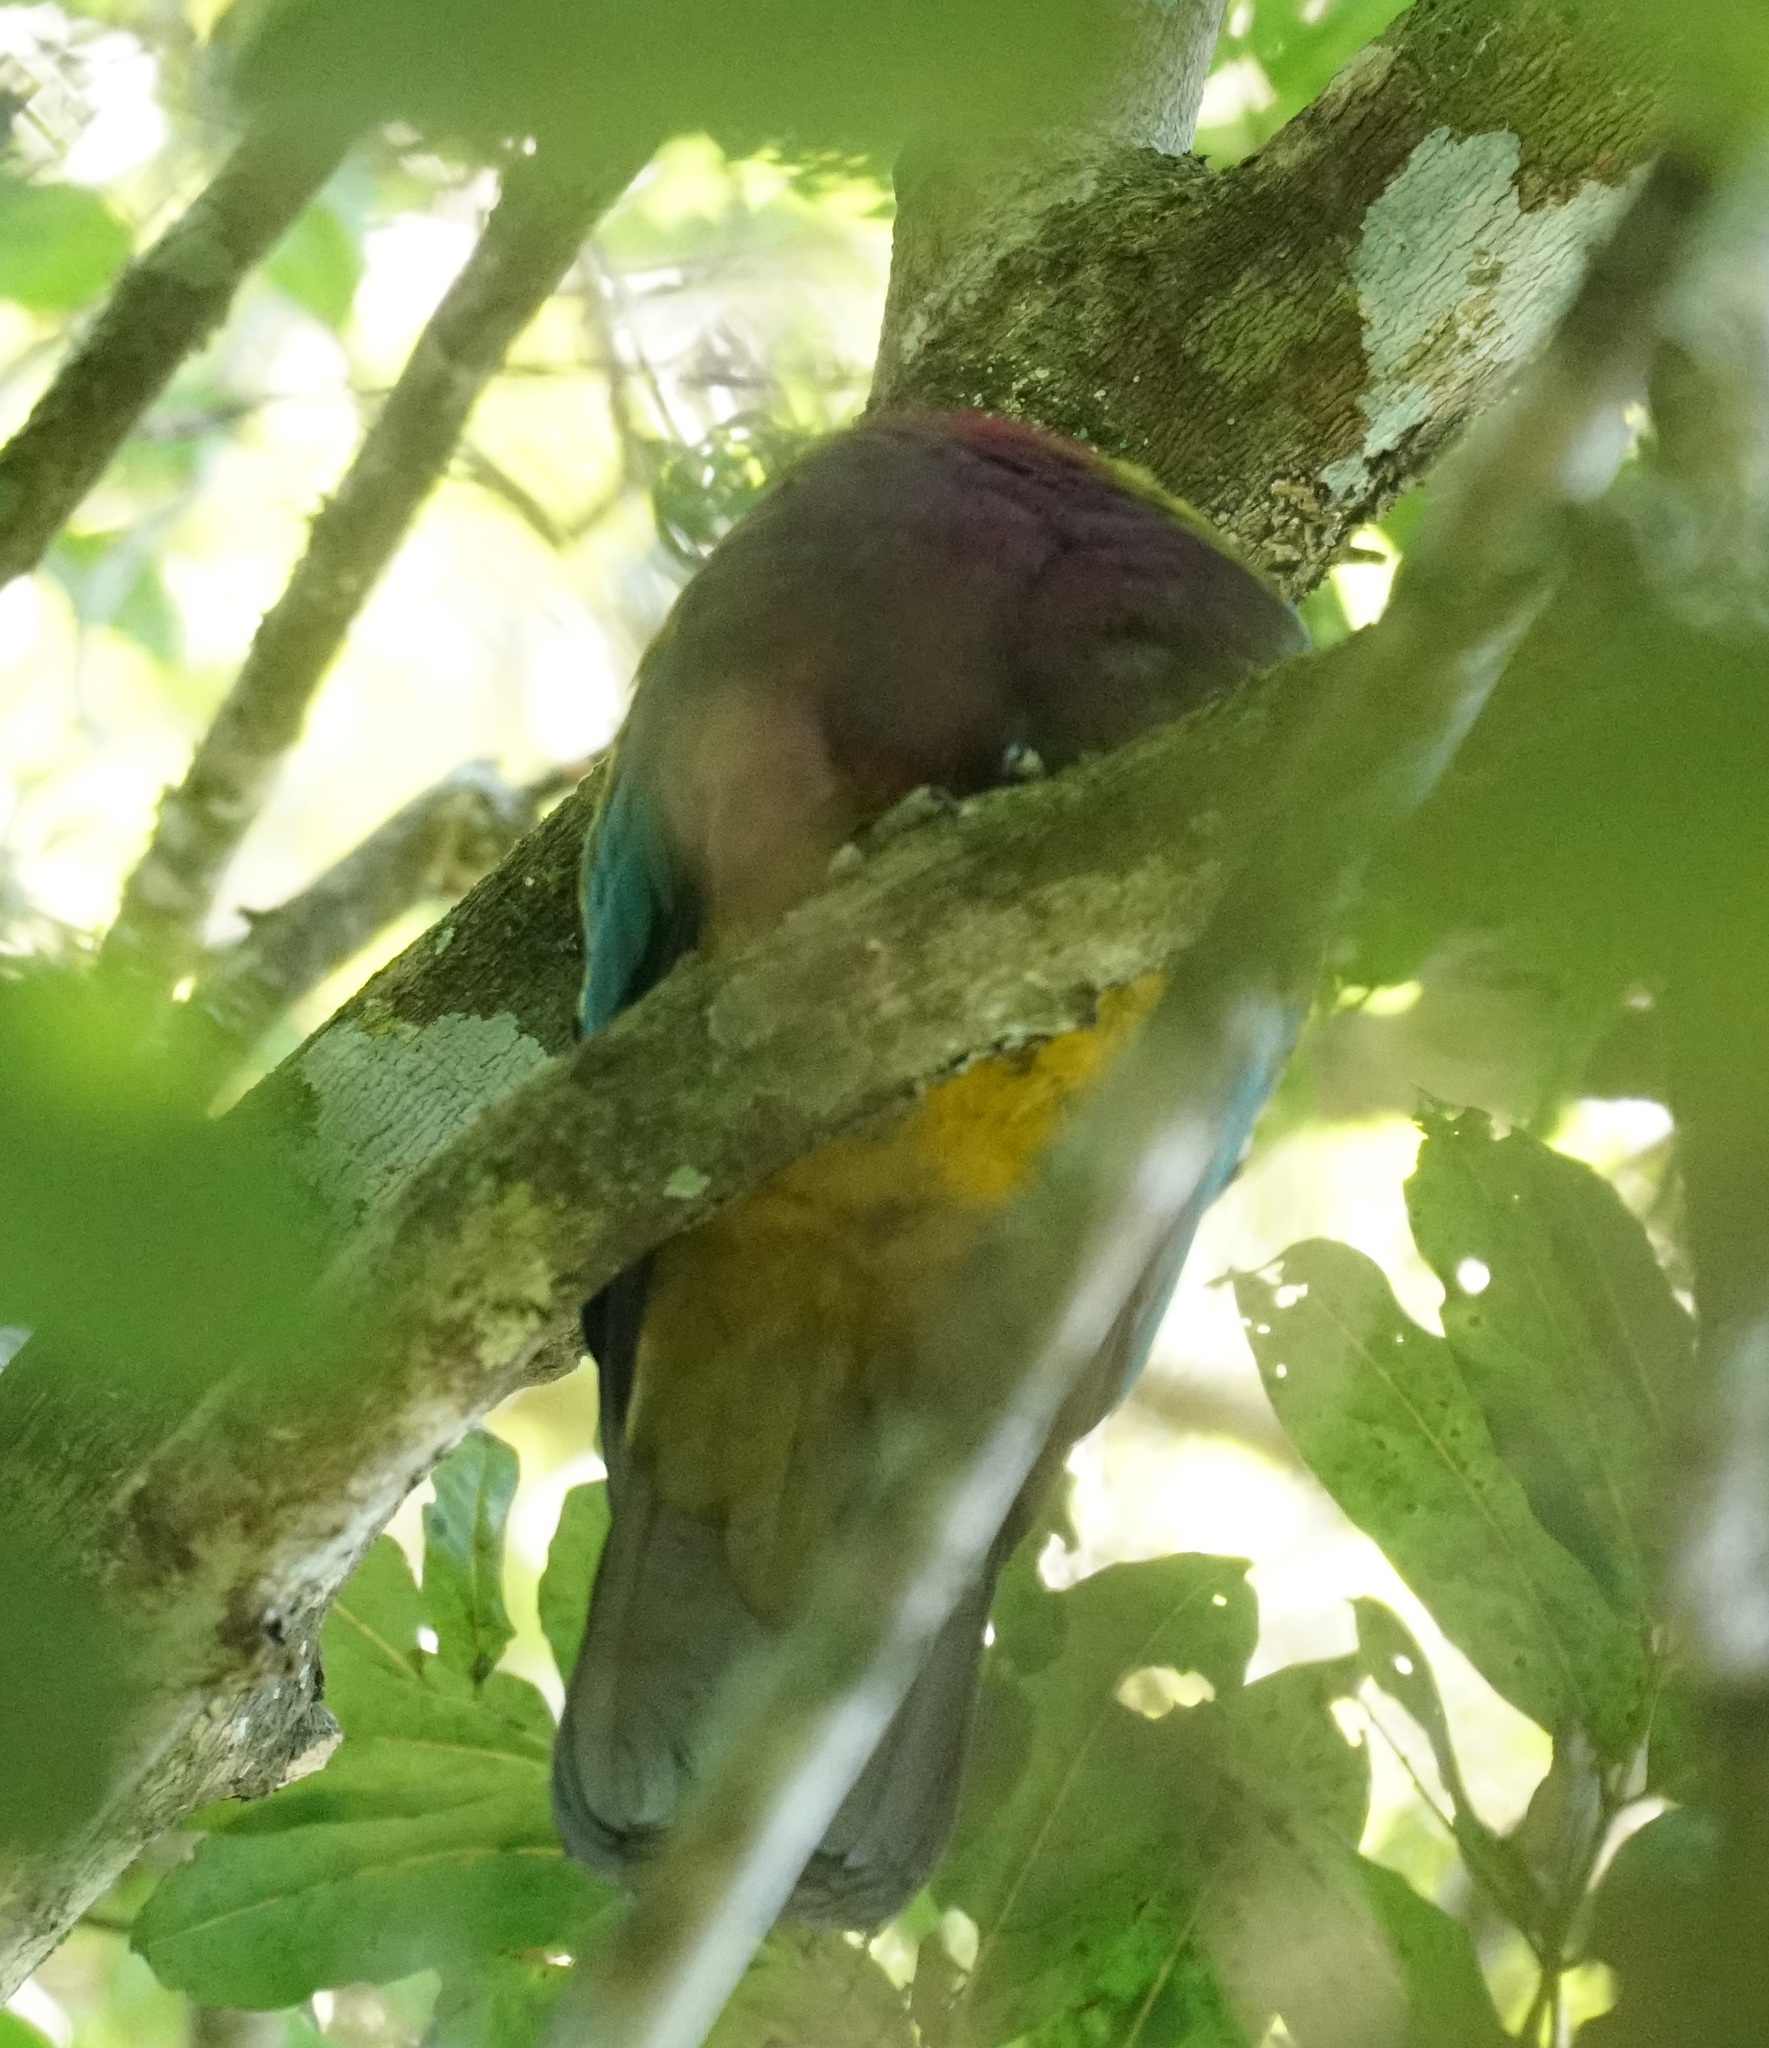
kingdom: Animalia
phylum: Chordata
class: Aves
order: Columbiformes
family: Columbidae
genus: Ptilinopus
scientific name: Ptilinopus magnificus
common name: Wompoo fruit dove
